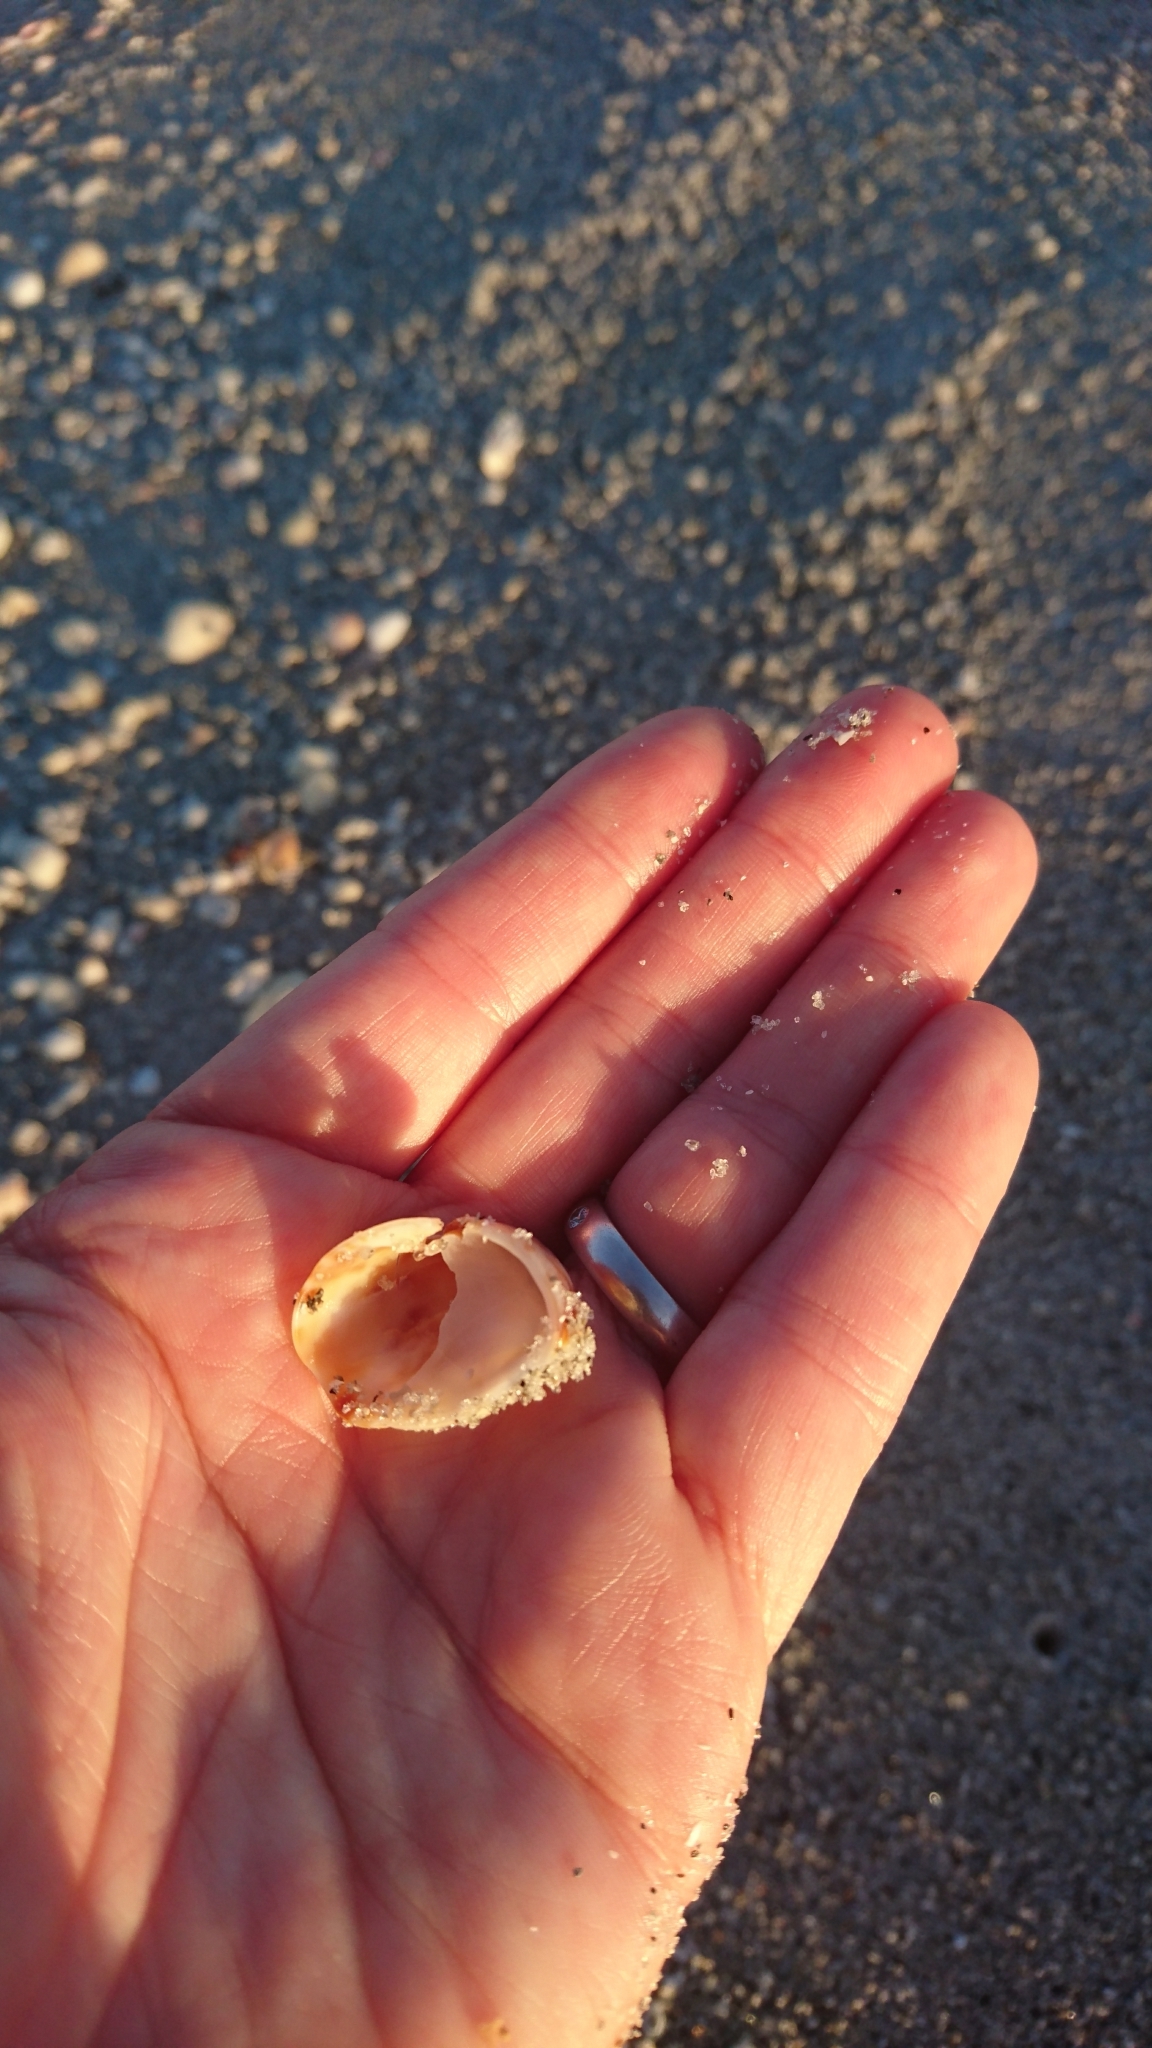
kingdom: Animalia
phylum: Mollusca
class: Gastropoda
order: Littorinimorpha
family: Calyptraeidae
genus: Crepidula
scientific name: Crepidula fornicata
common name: Slipper limpet
